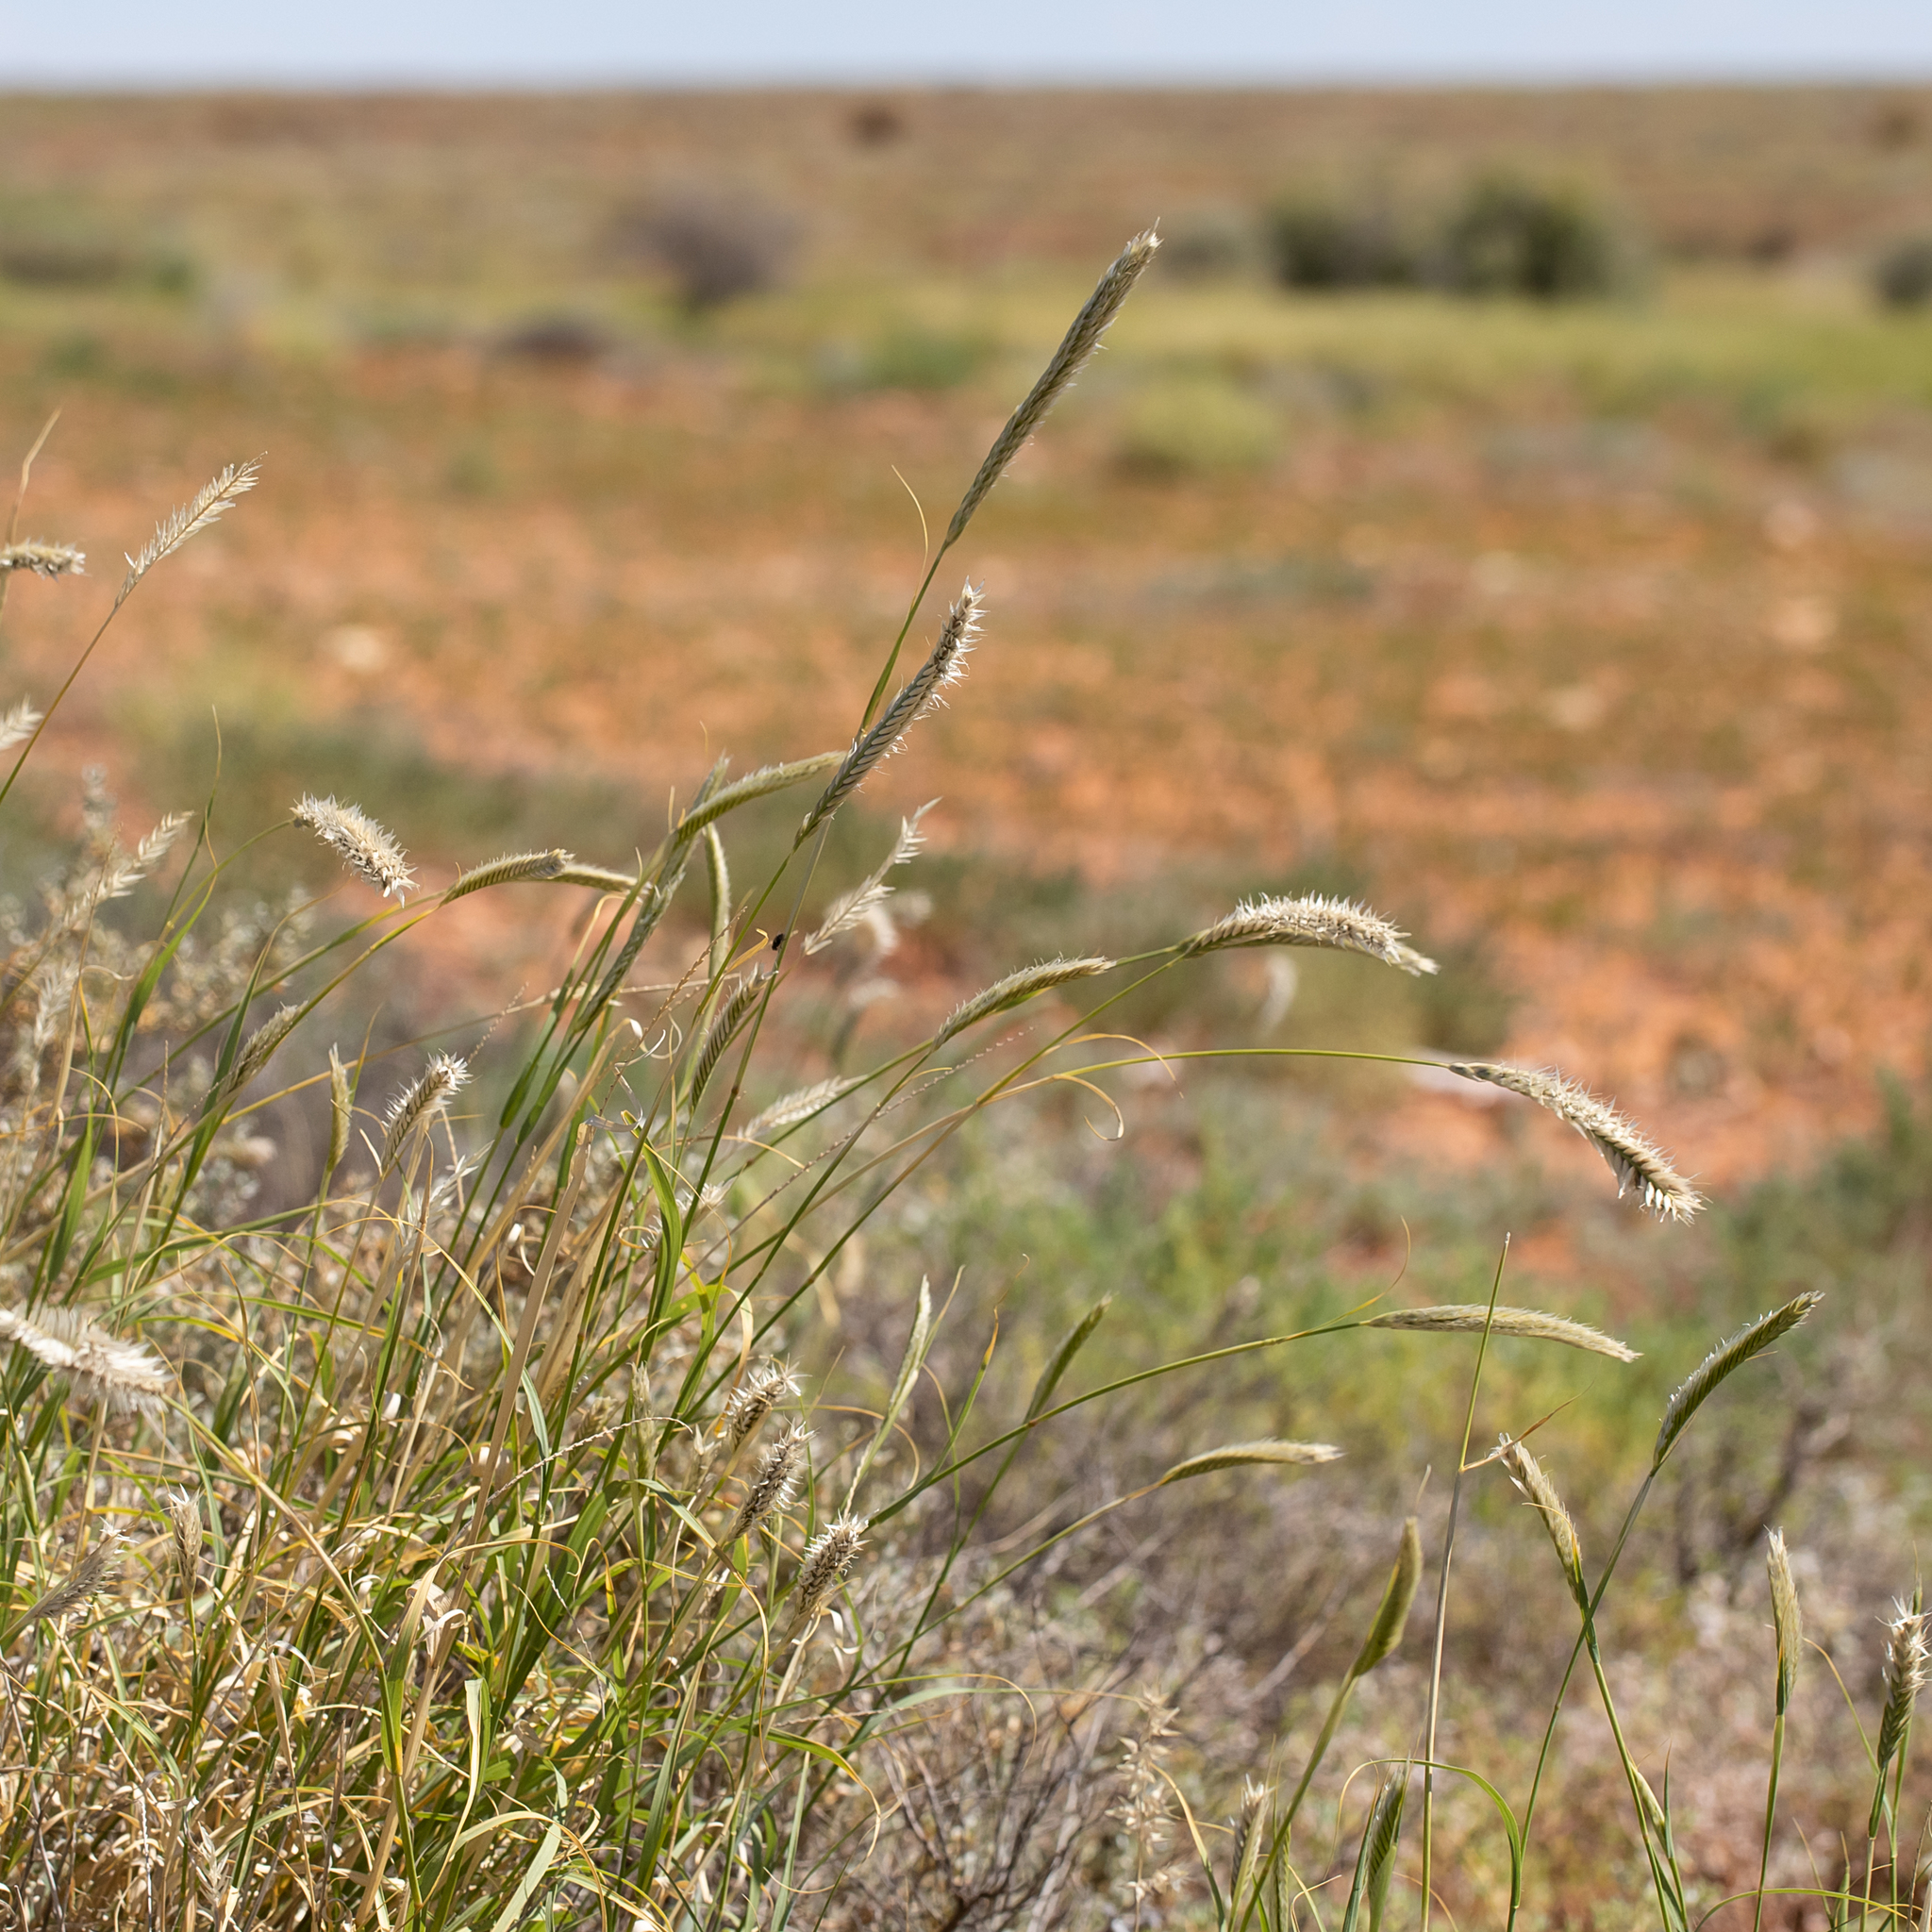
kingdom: Plantae
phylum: Tracheophyta
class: Liliopsida
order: Poales
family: Poaceae
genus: Astrebla
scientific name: Astrebla pectinata
